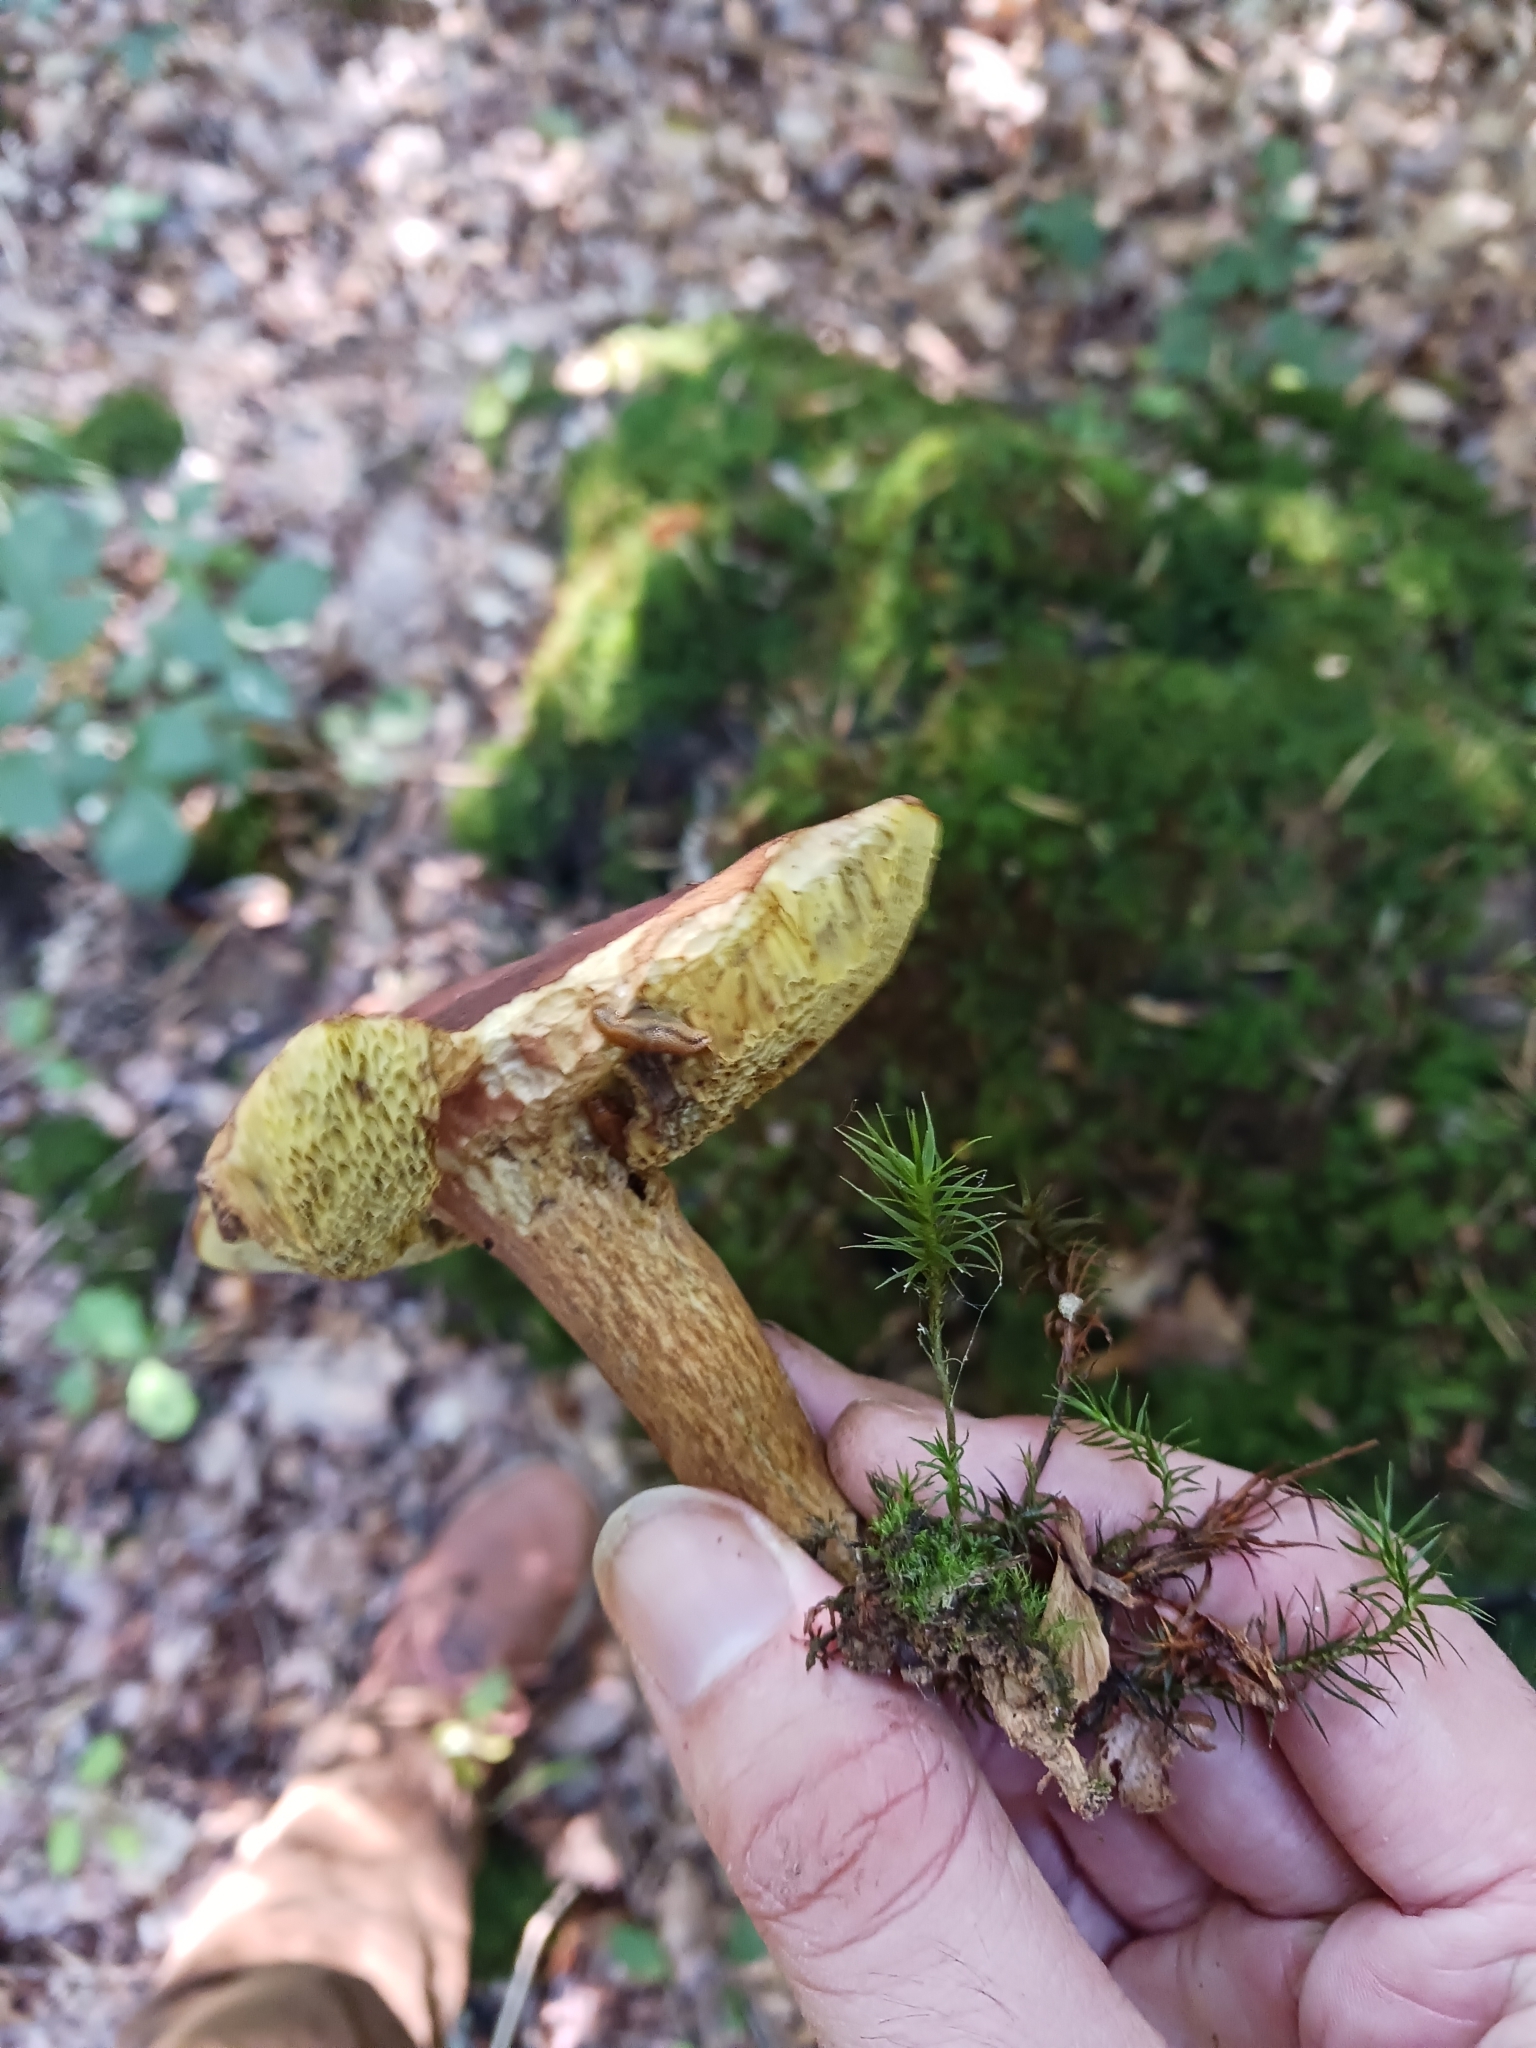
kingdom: Fungi
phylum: Basidiomycota
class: Agaricomycetes
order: Boletales
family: Boletaceae
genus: Imleria
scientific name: Imleria badia
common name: Bay bolete
